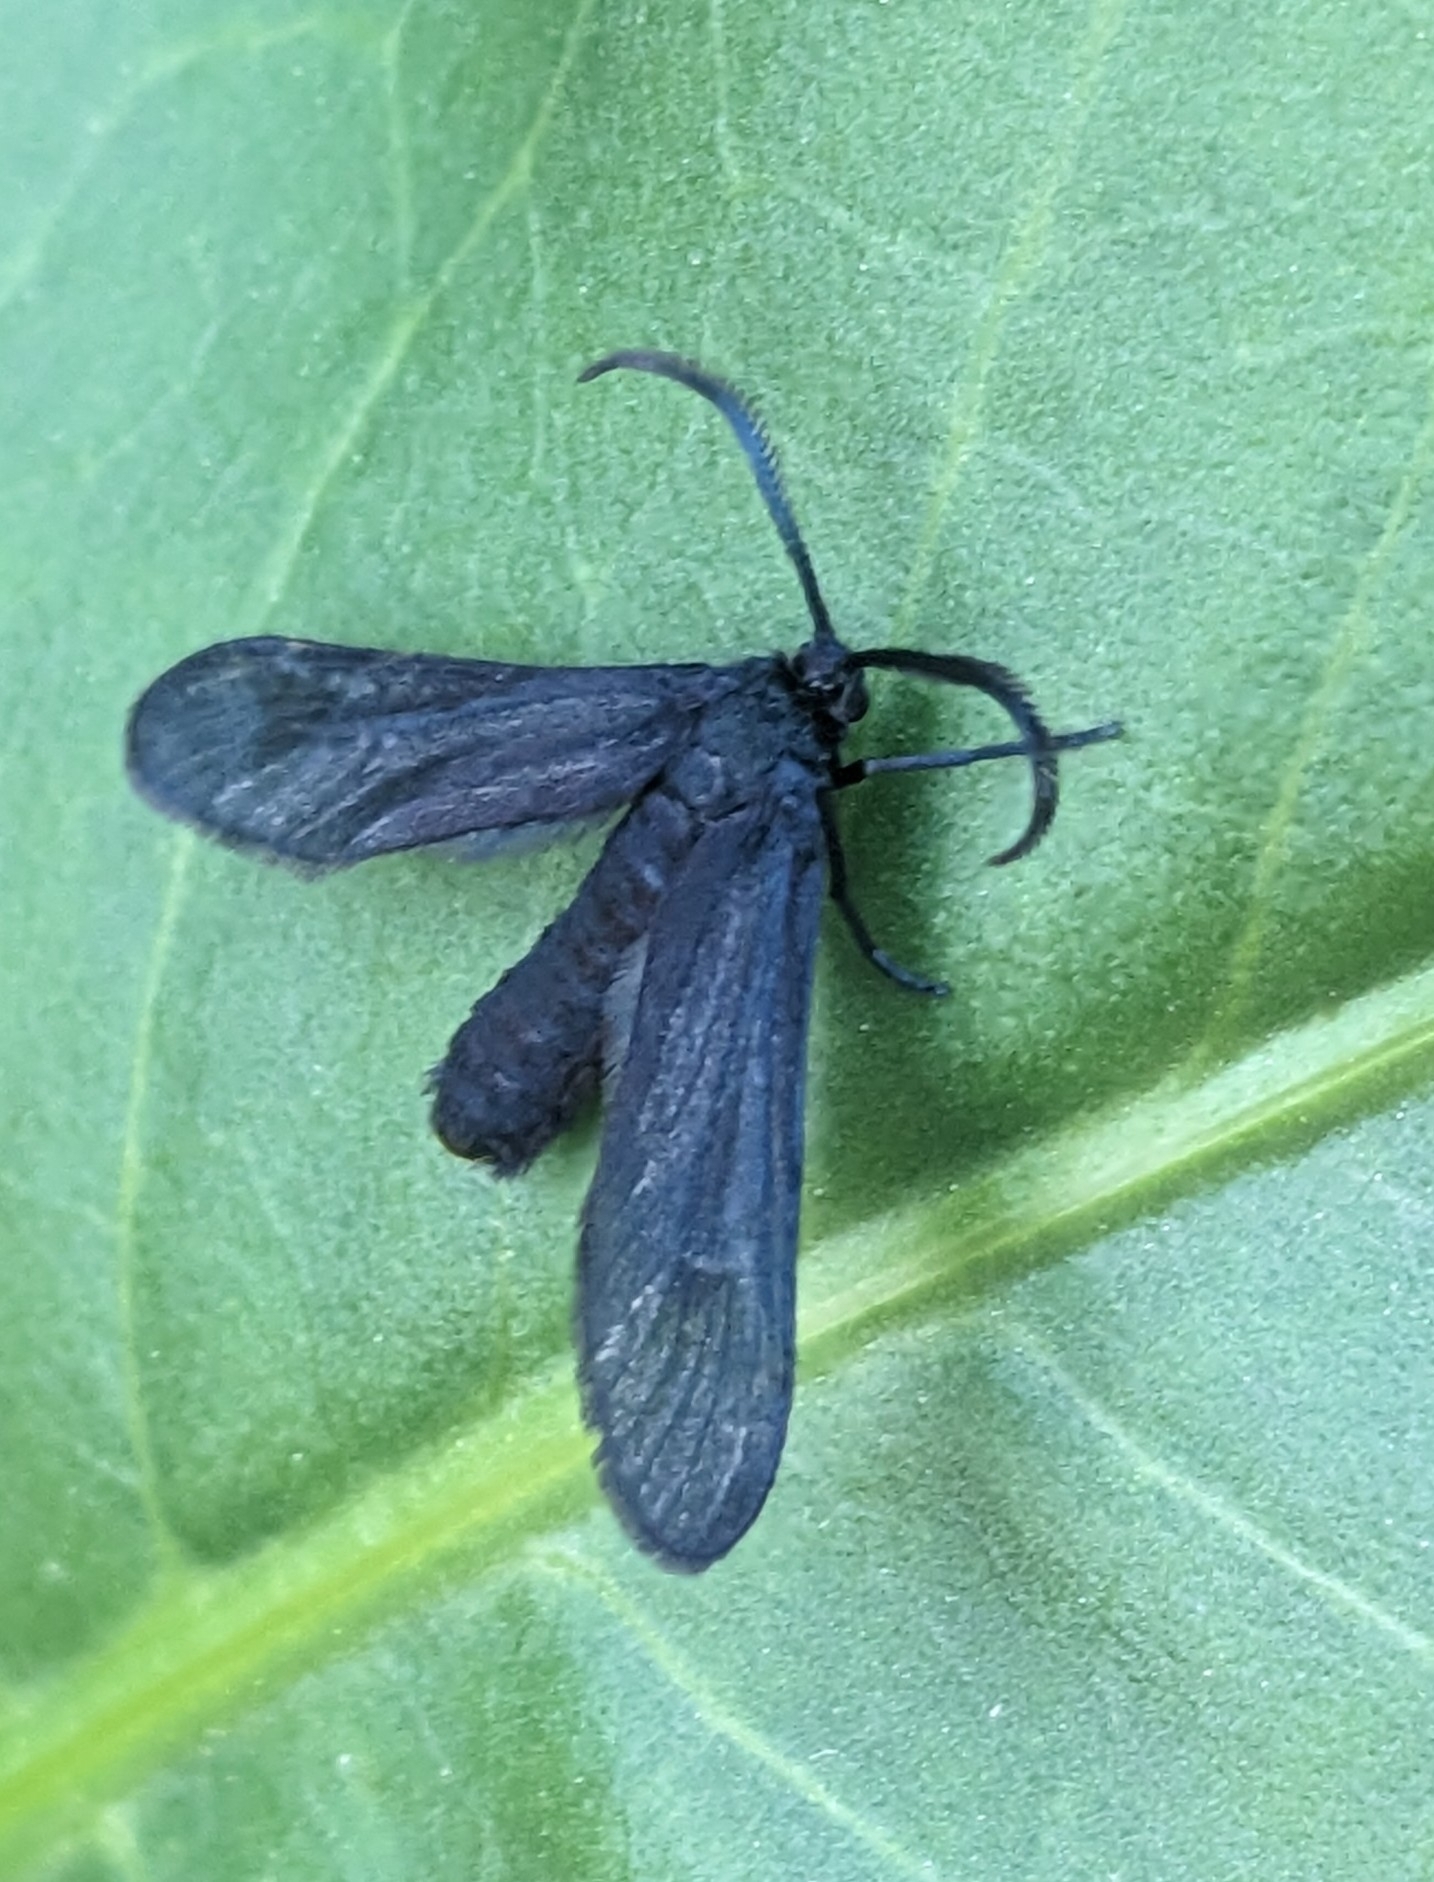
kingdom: Animalia
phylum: Arthropoda
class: Insecta
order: Lepidoptera
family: Zygaenidae
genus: Harrisina
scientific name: Harrisina coracina
